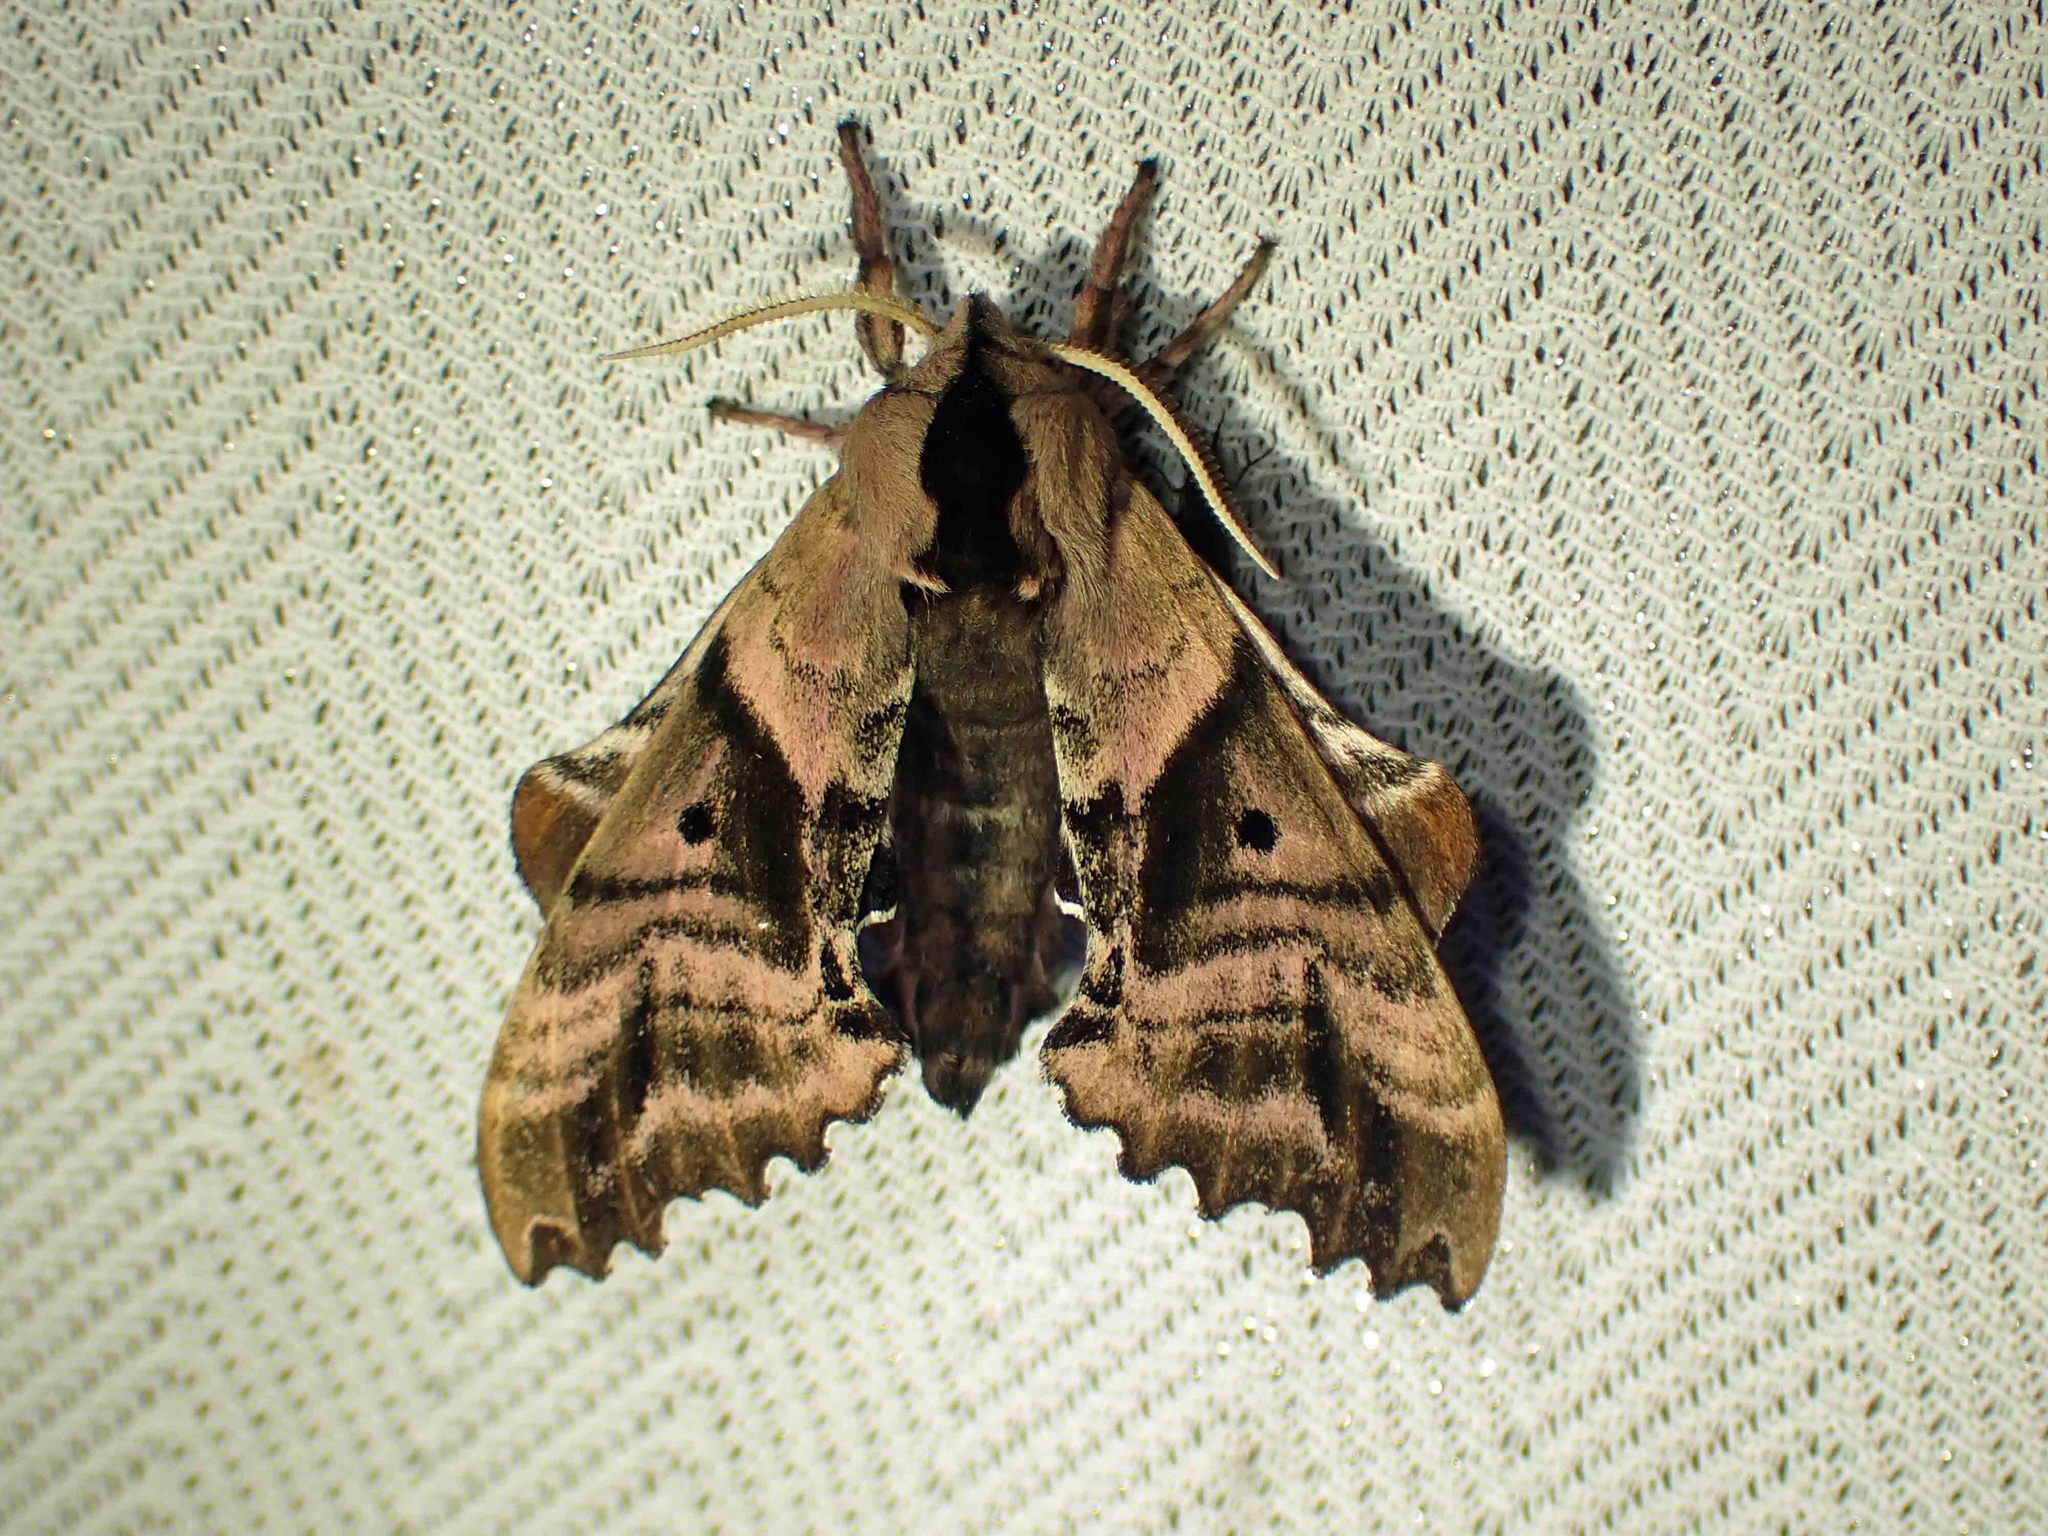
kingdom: Animalia
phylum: Arthropoda
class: Insecta
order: Lepidoptera
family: Sphingidae
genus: Paonias
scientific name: Paonias excaecata
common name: Blind-eyed sphinx
